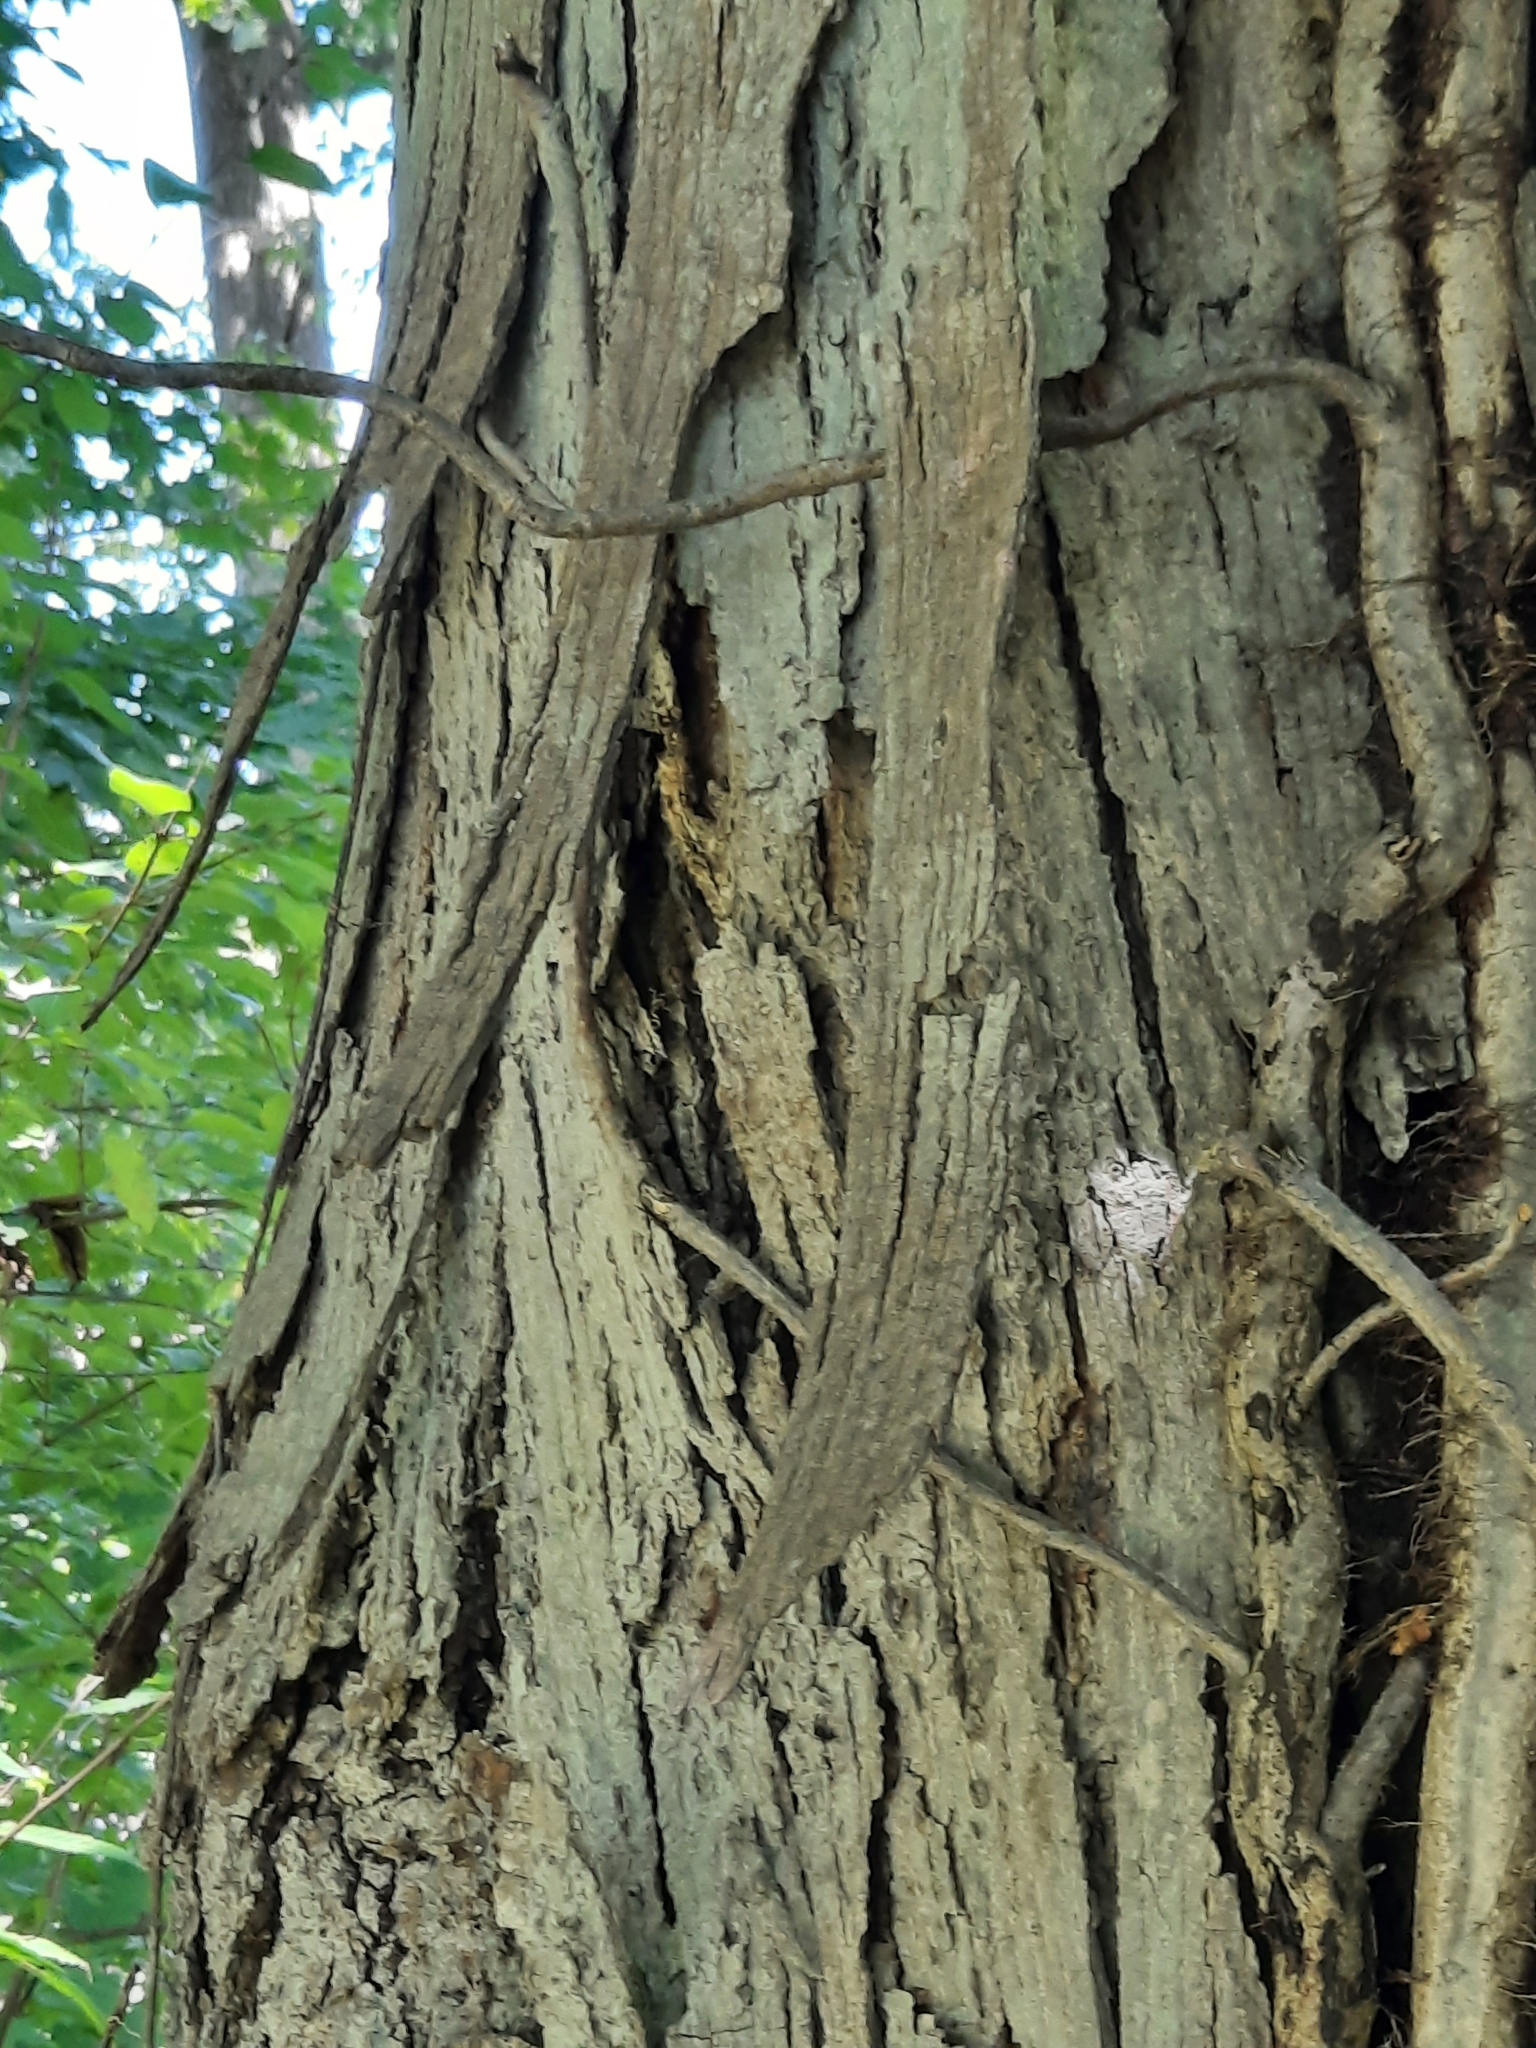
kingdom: Plantae
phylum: Tracheophyta
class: Magnoliopsida
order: Fagales
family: Juglandaceae
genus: Carya
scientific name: Carya ovata
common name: Shagbark hickory
